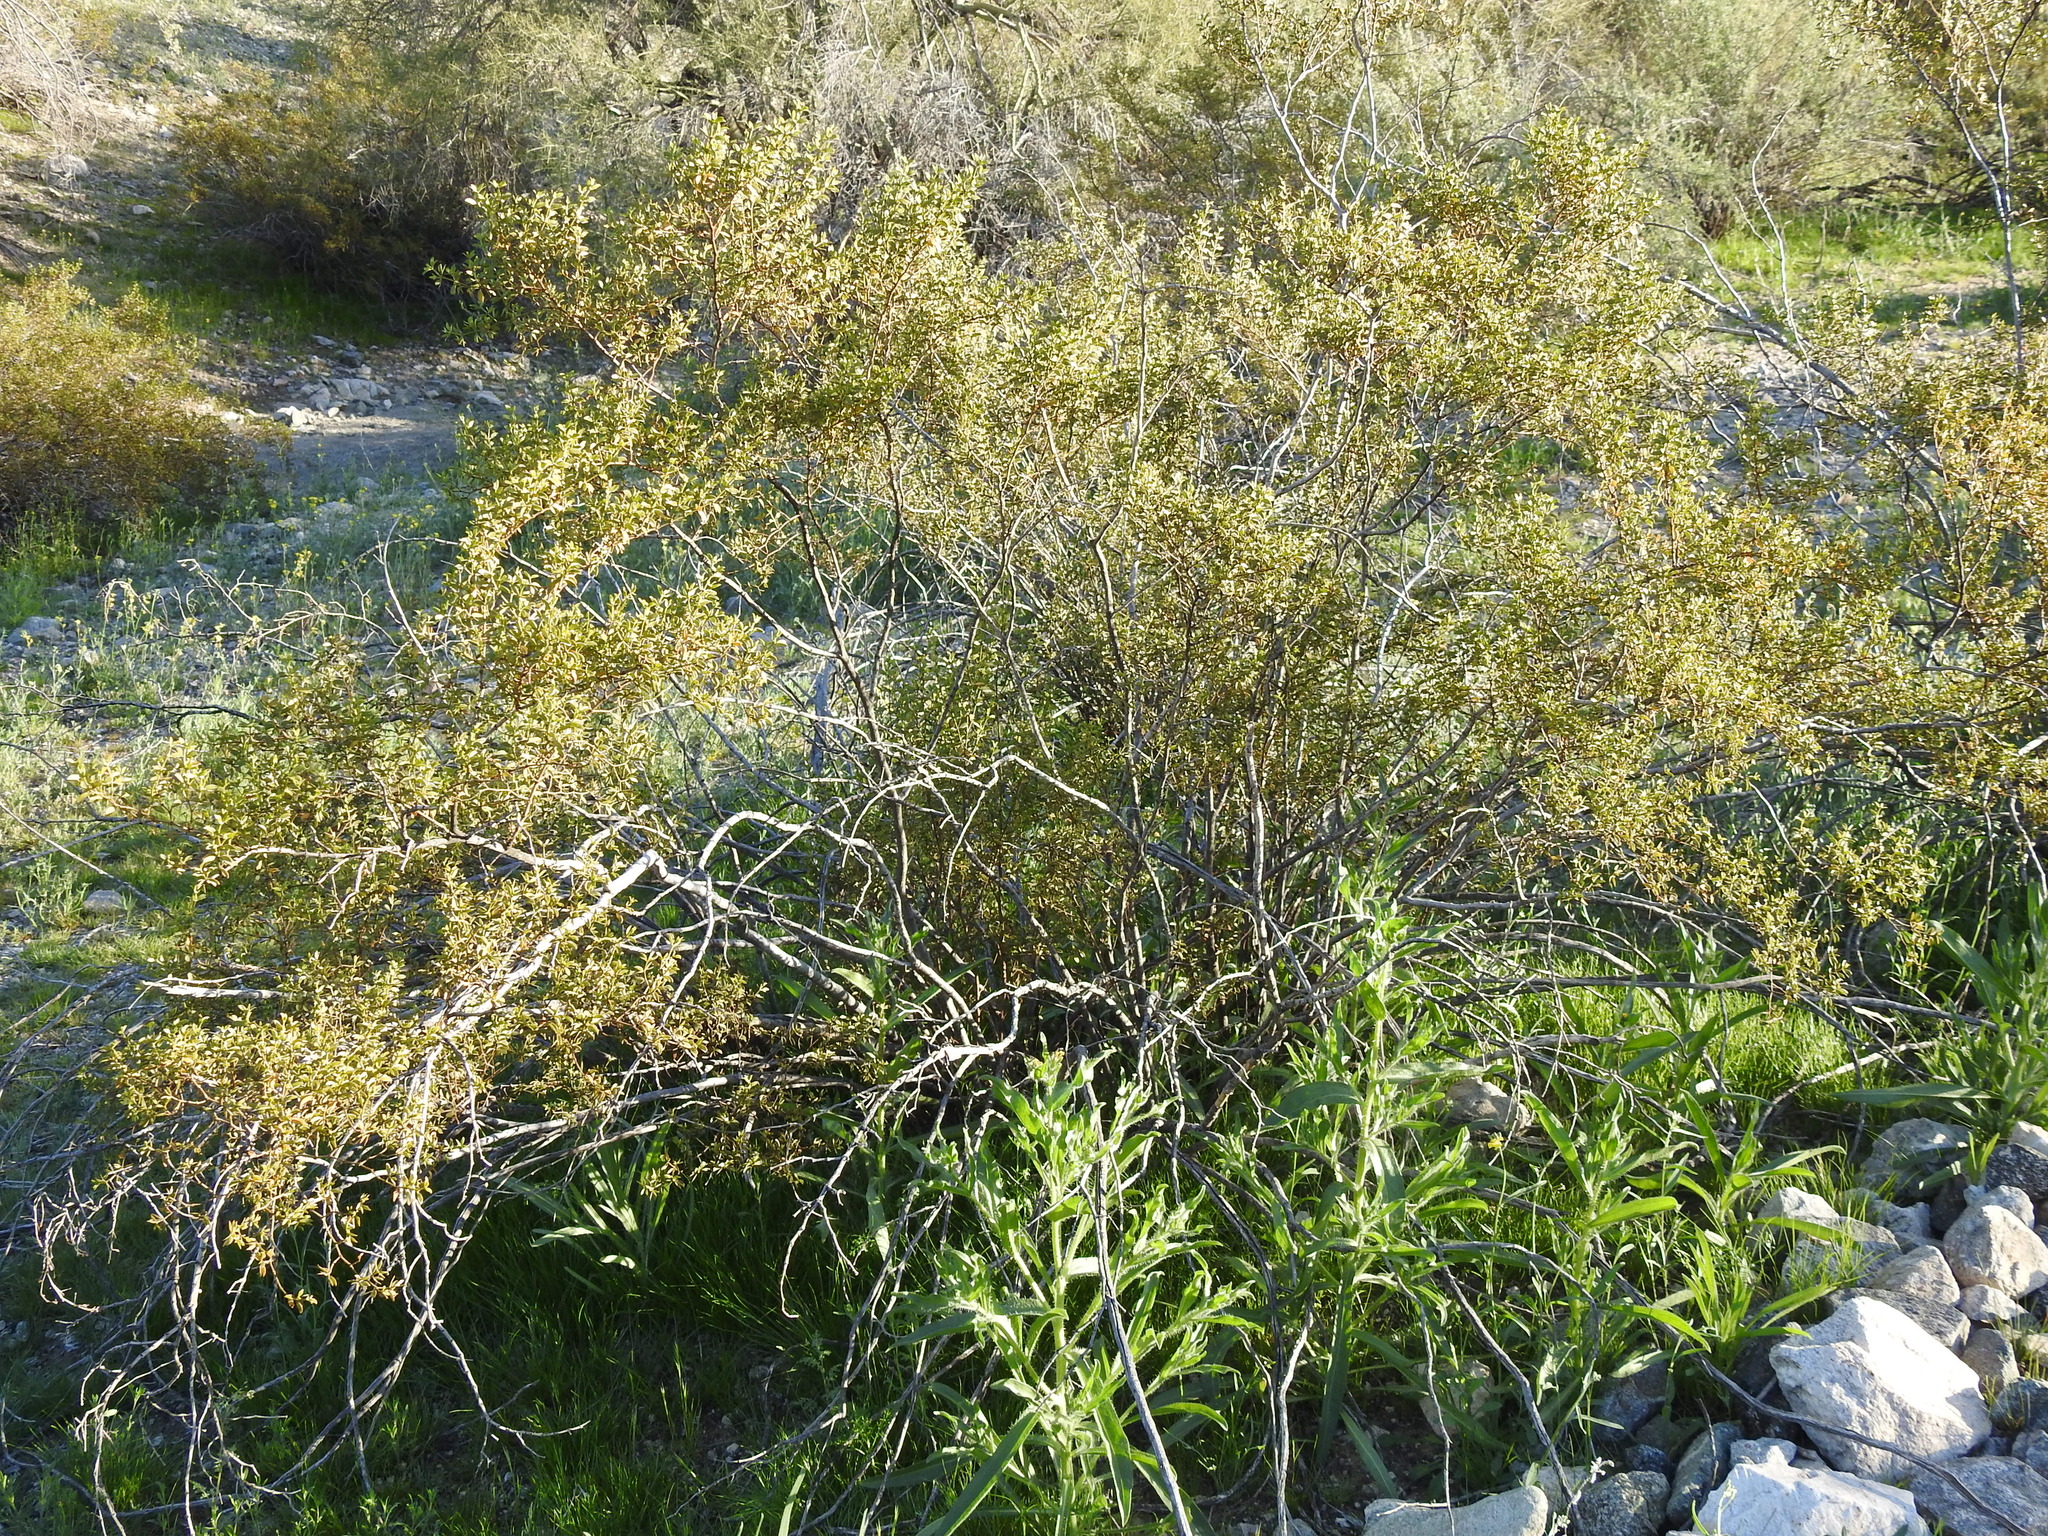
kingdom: Plantae
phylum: Tracheophyta
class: Magnoliopsida
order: Zygophyllales
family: Zygophyllaceae
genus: Larrea
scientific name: Larrea tridentata
